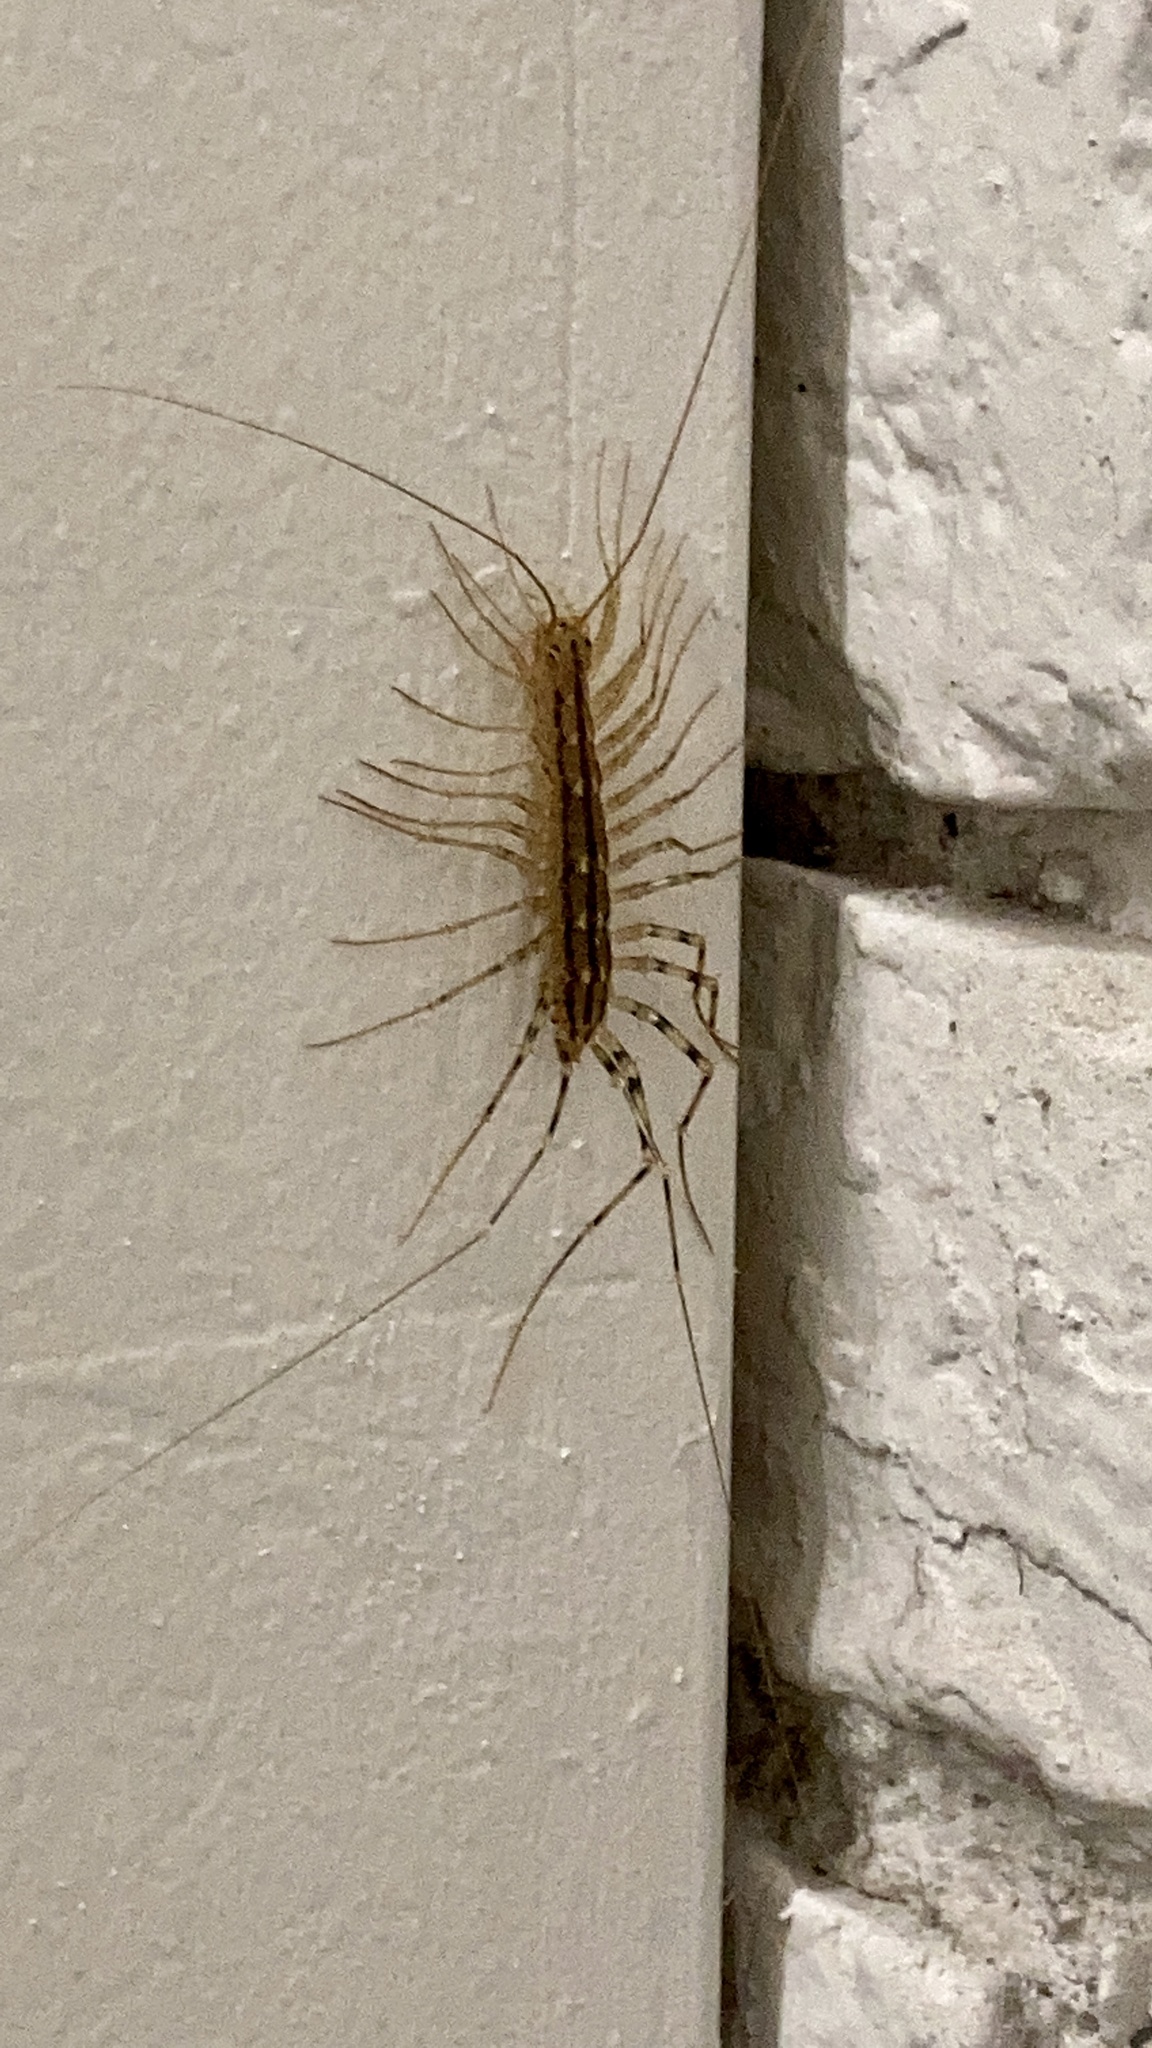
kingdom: Animalia
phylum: Arthropoda
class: Chilopoda
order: Scutigeromorpha
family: Scutigeridae
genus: Scutigera
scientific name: Scutigera coleoptrata
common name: House centipede
